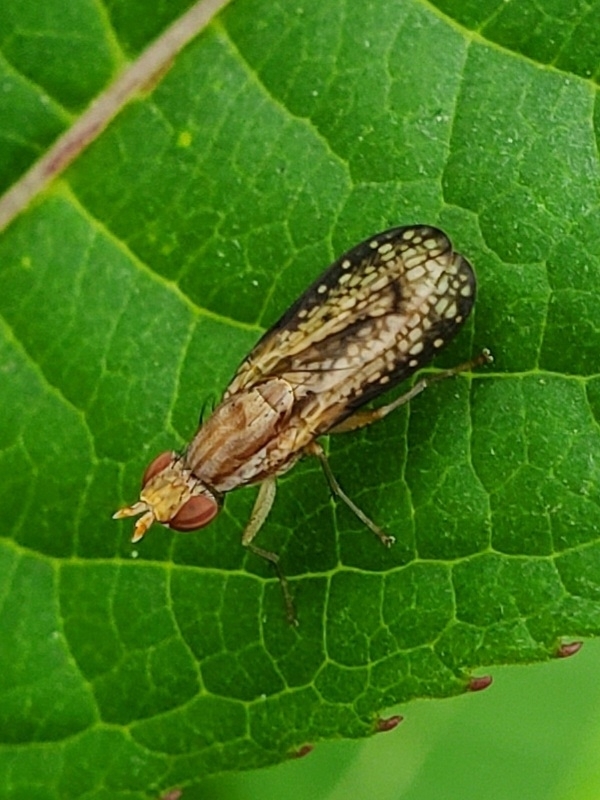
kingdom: Animalia
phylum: Arthropoda
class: Insecta
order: Diptera
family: Sciomyzidae
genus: Trypetoptera
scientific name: Trypetoptera canadensis
